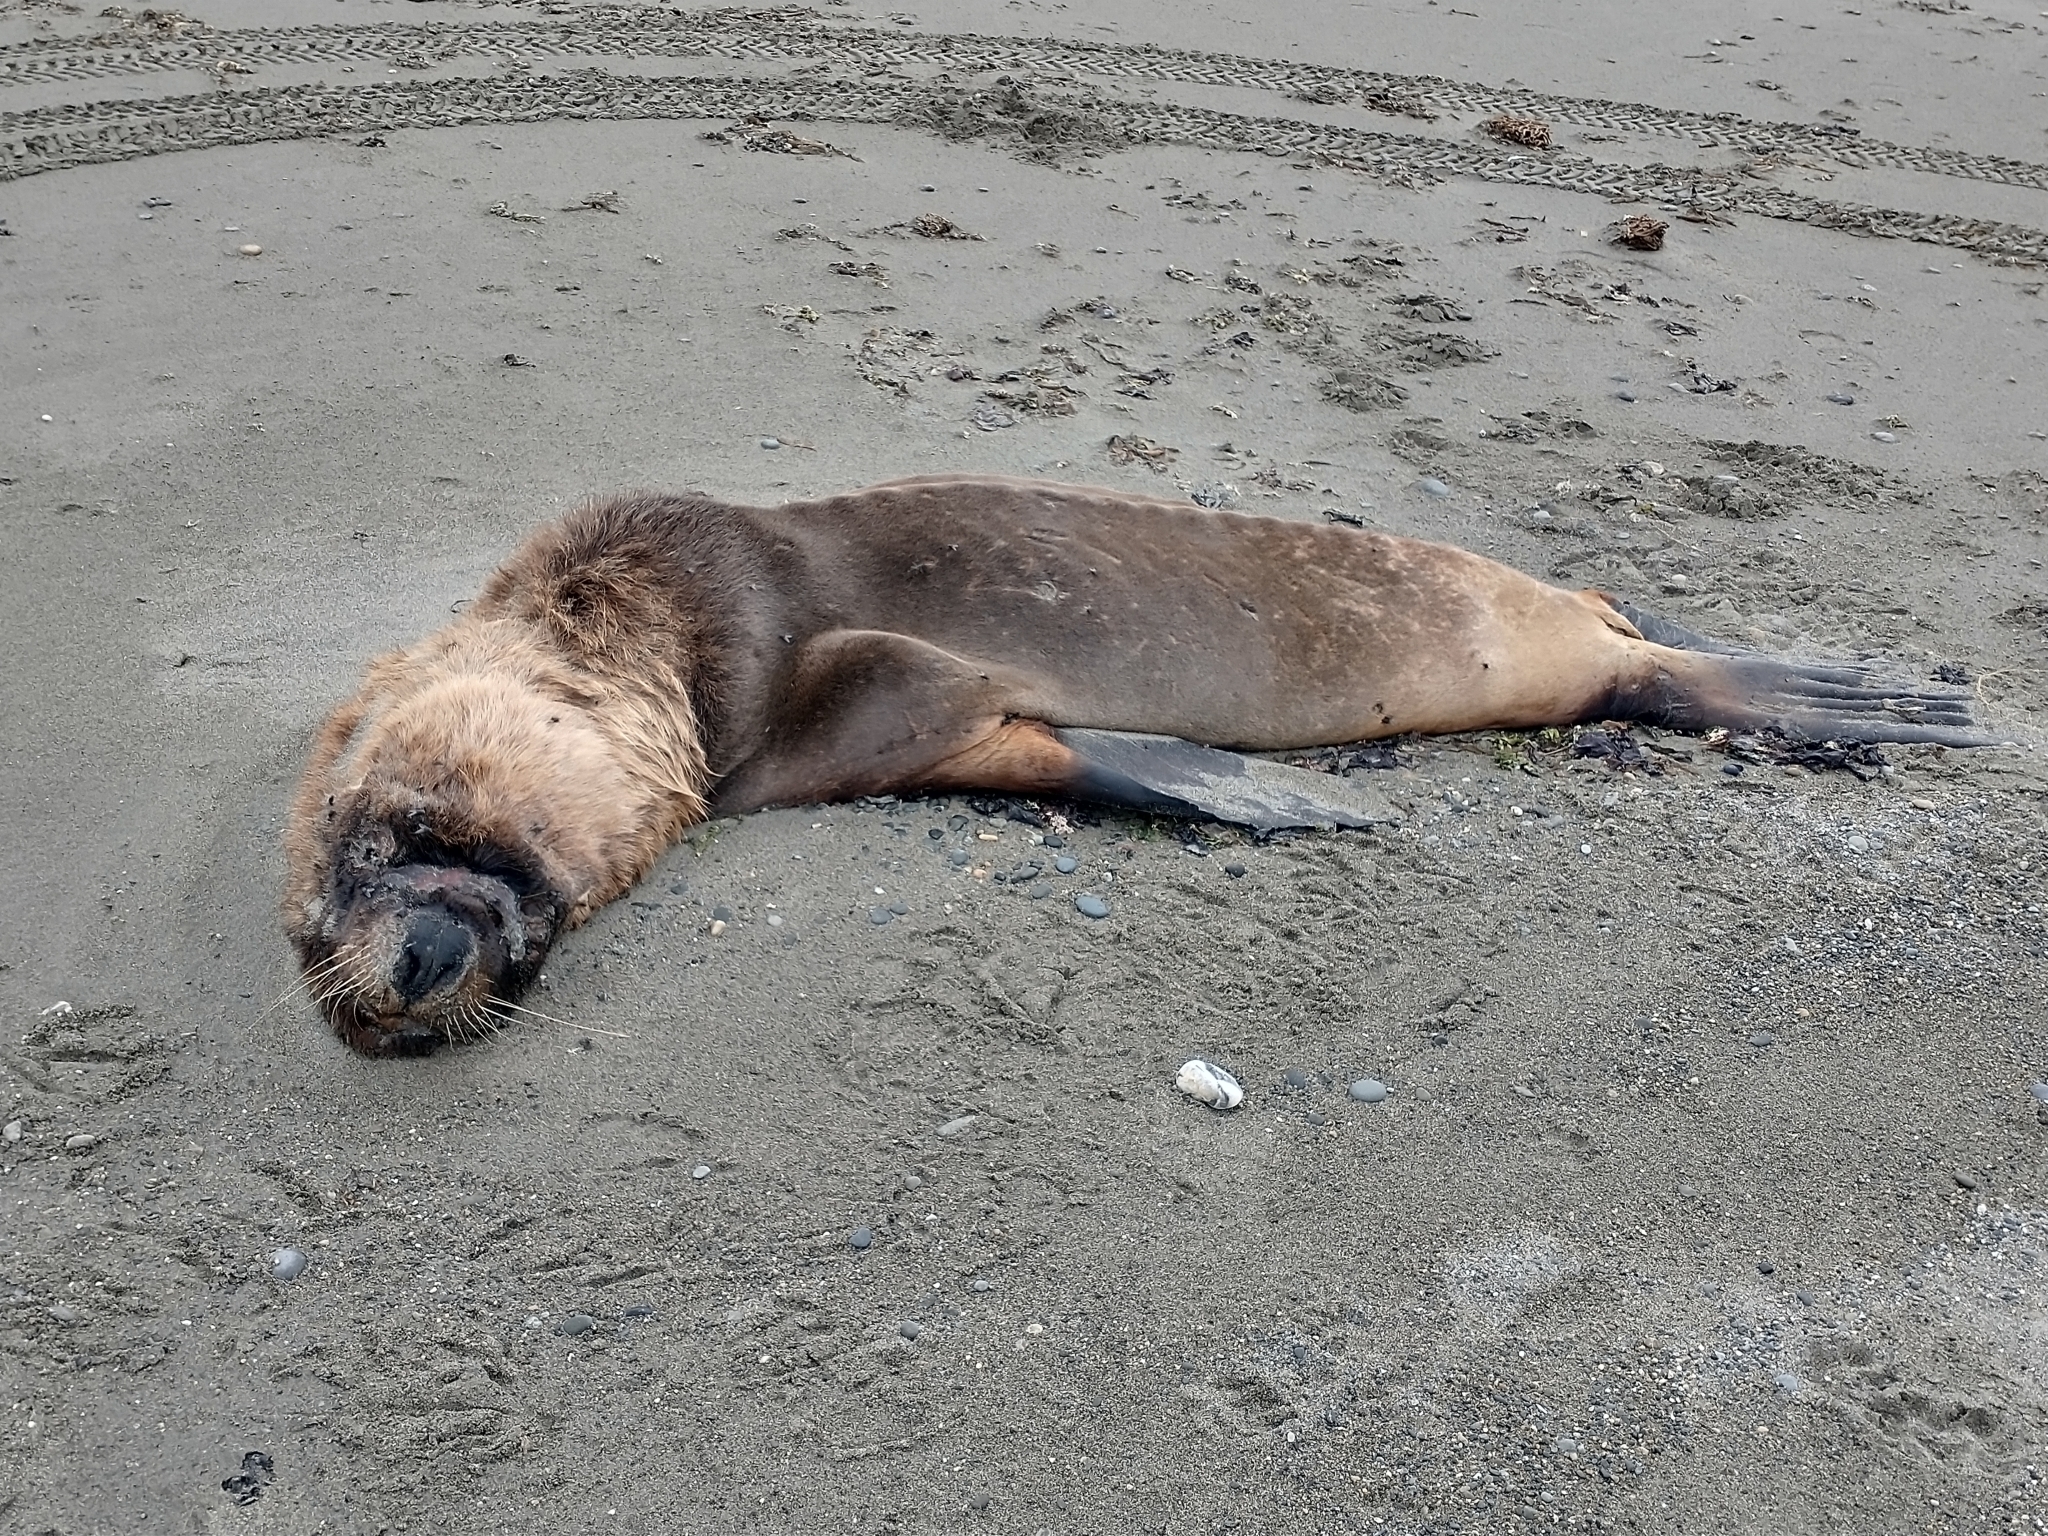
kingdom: Animalia
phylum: Chordata
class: Mammalia
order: Carnivora
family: Otariidae
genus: Otaria
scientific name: Otaria byronia
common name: South american sea lion
